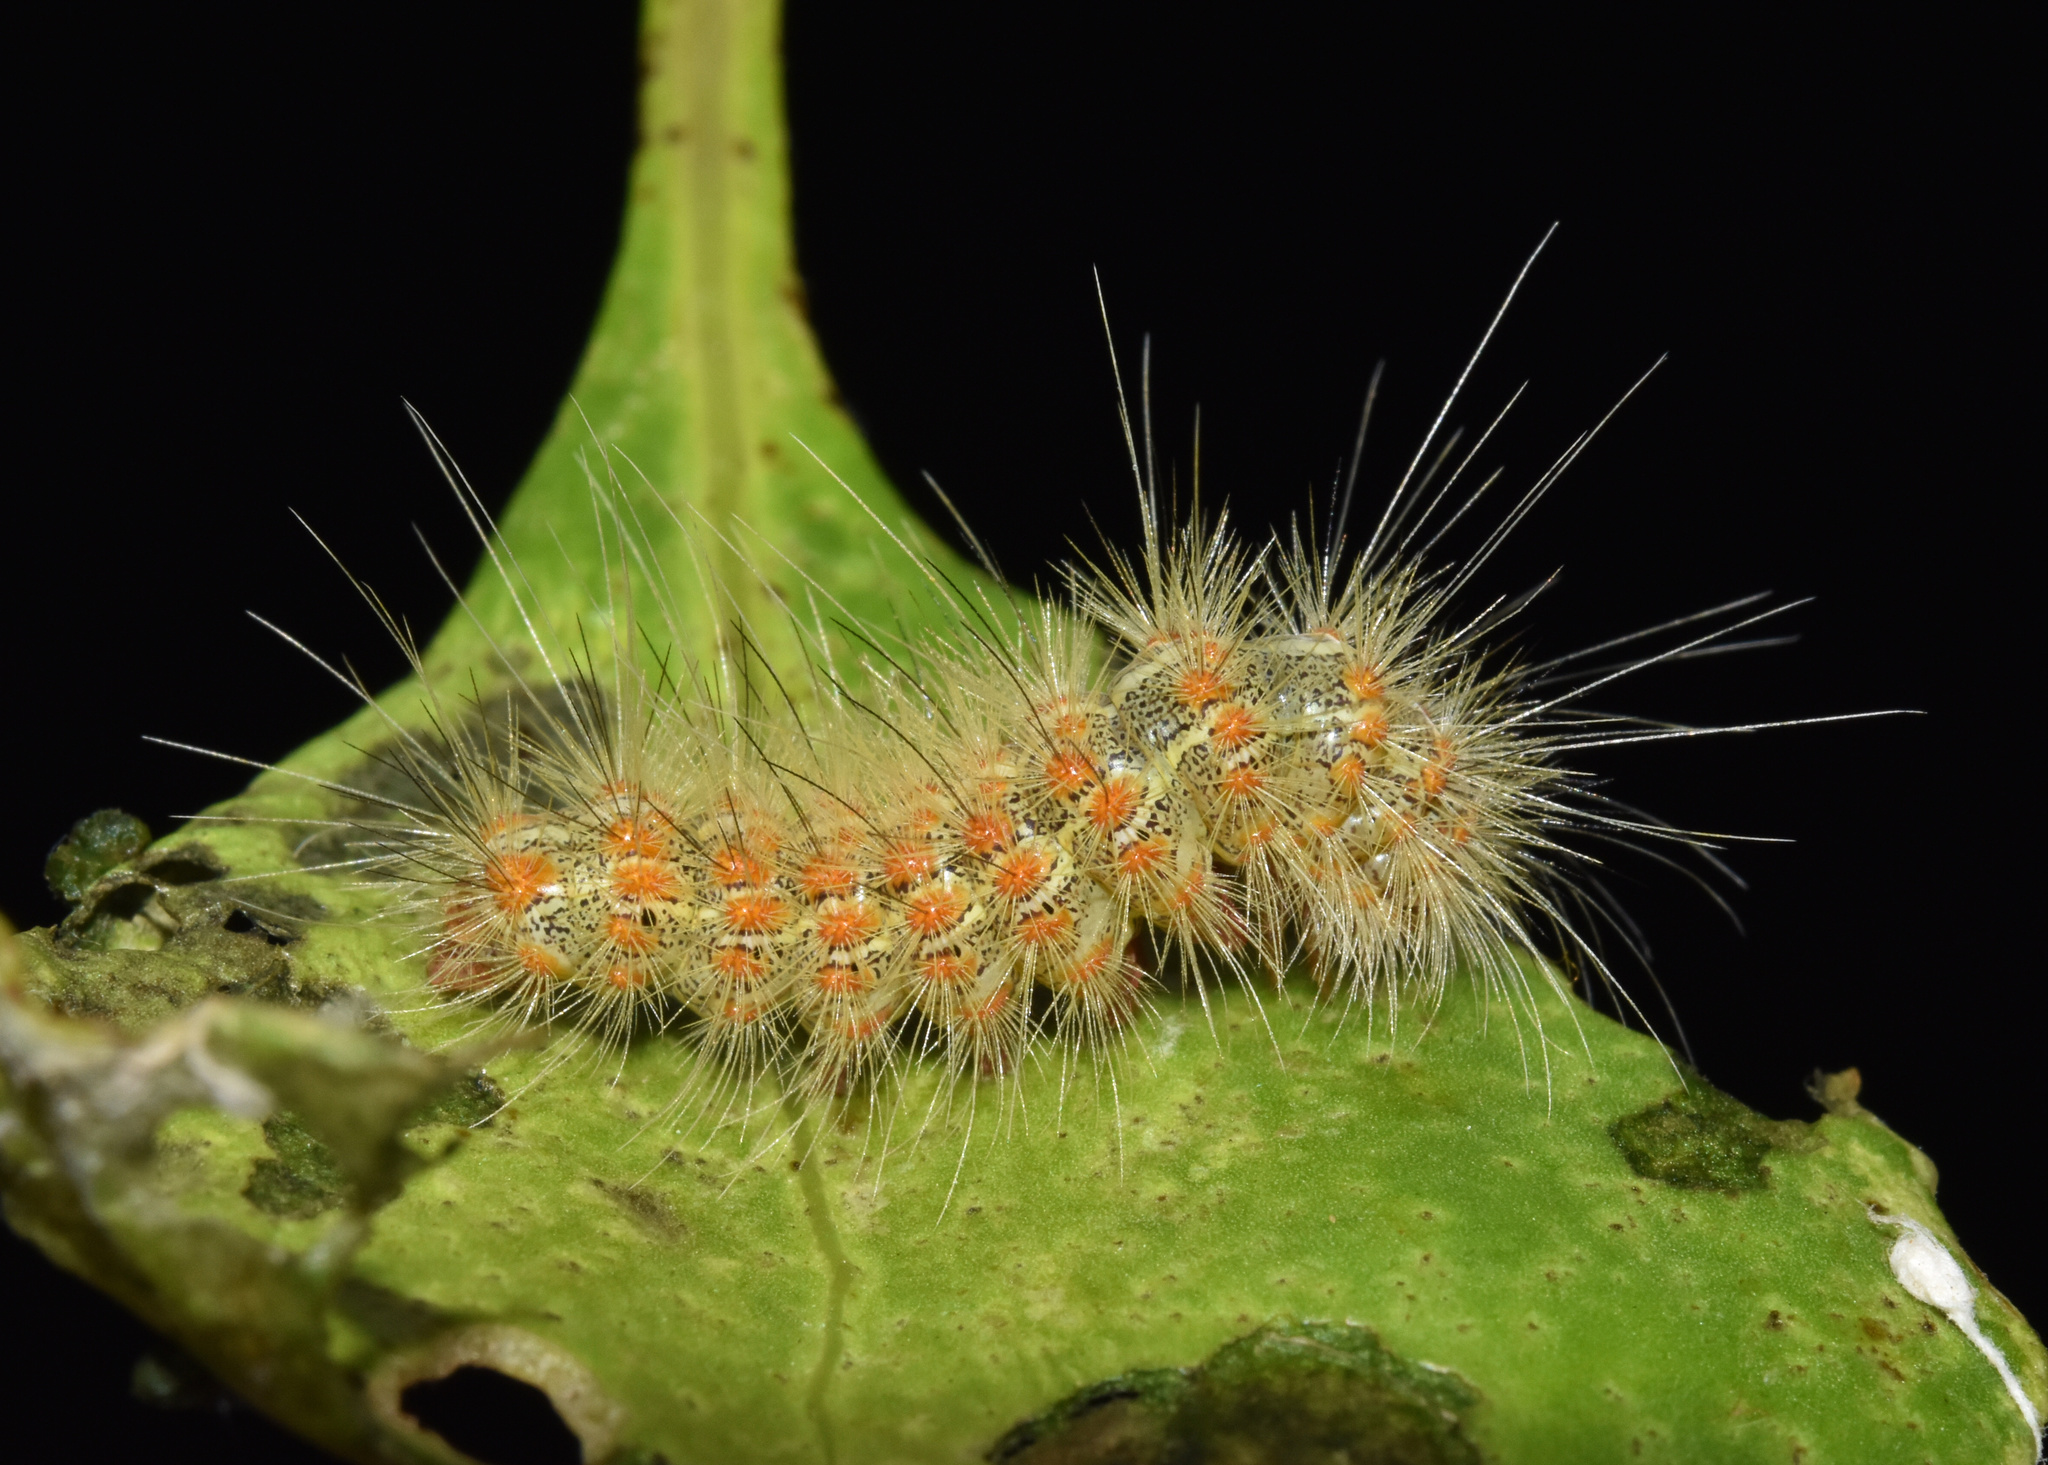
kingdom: Animalia
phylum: Arthropoda
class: Insecta
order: Lepidoptera
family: Erebidae
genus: Paralacydes
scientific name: Paralacydes arborifera
